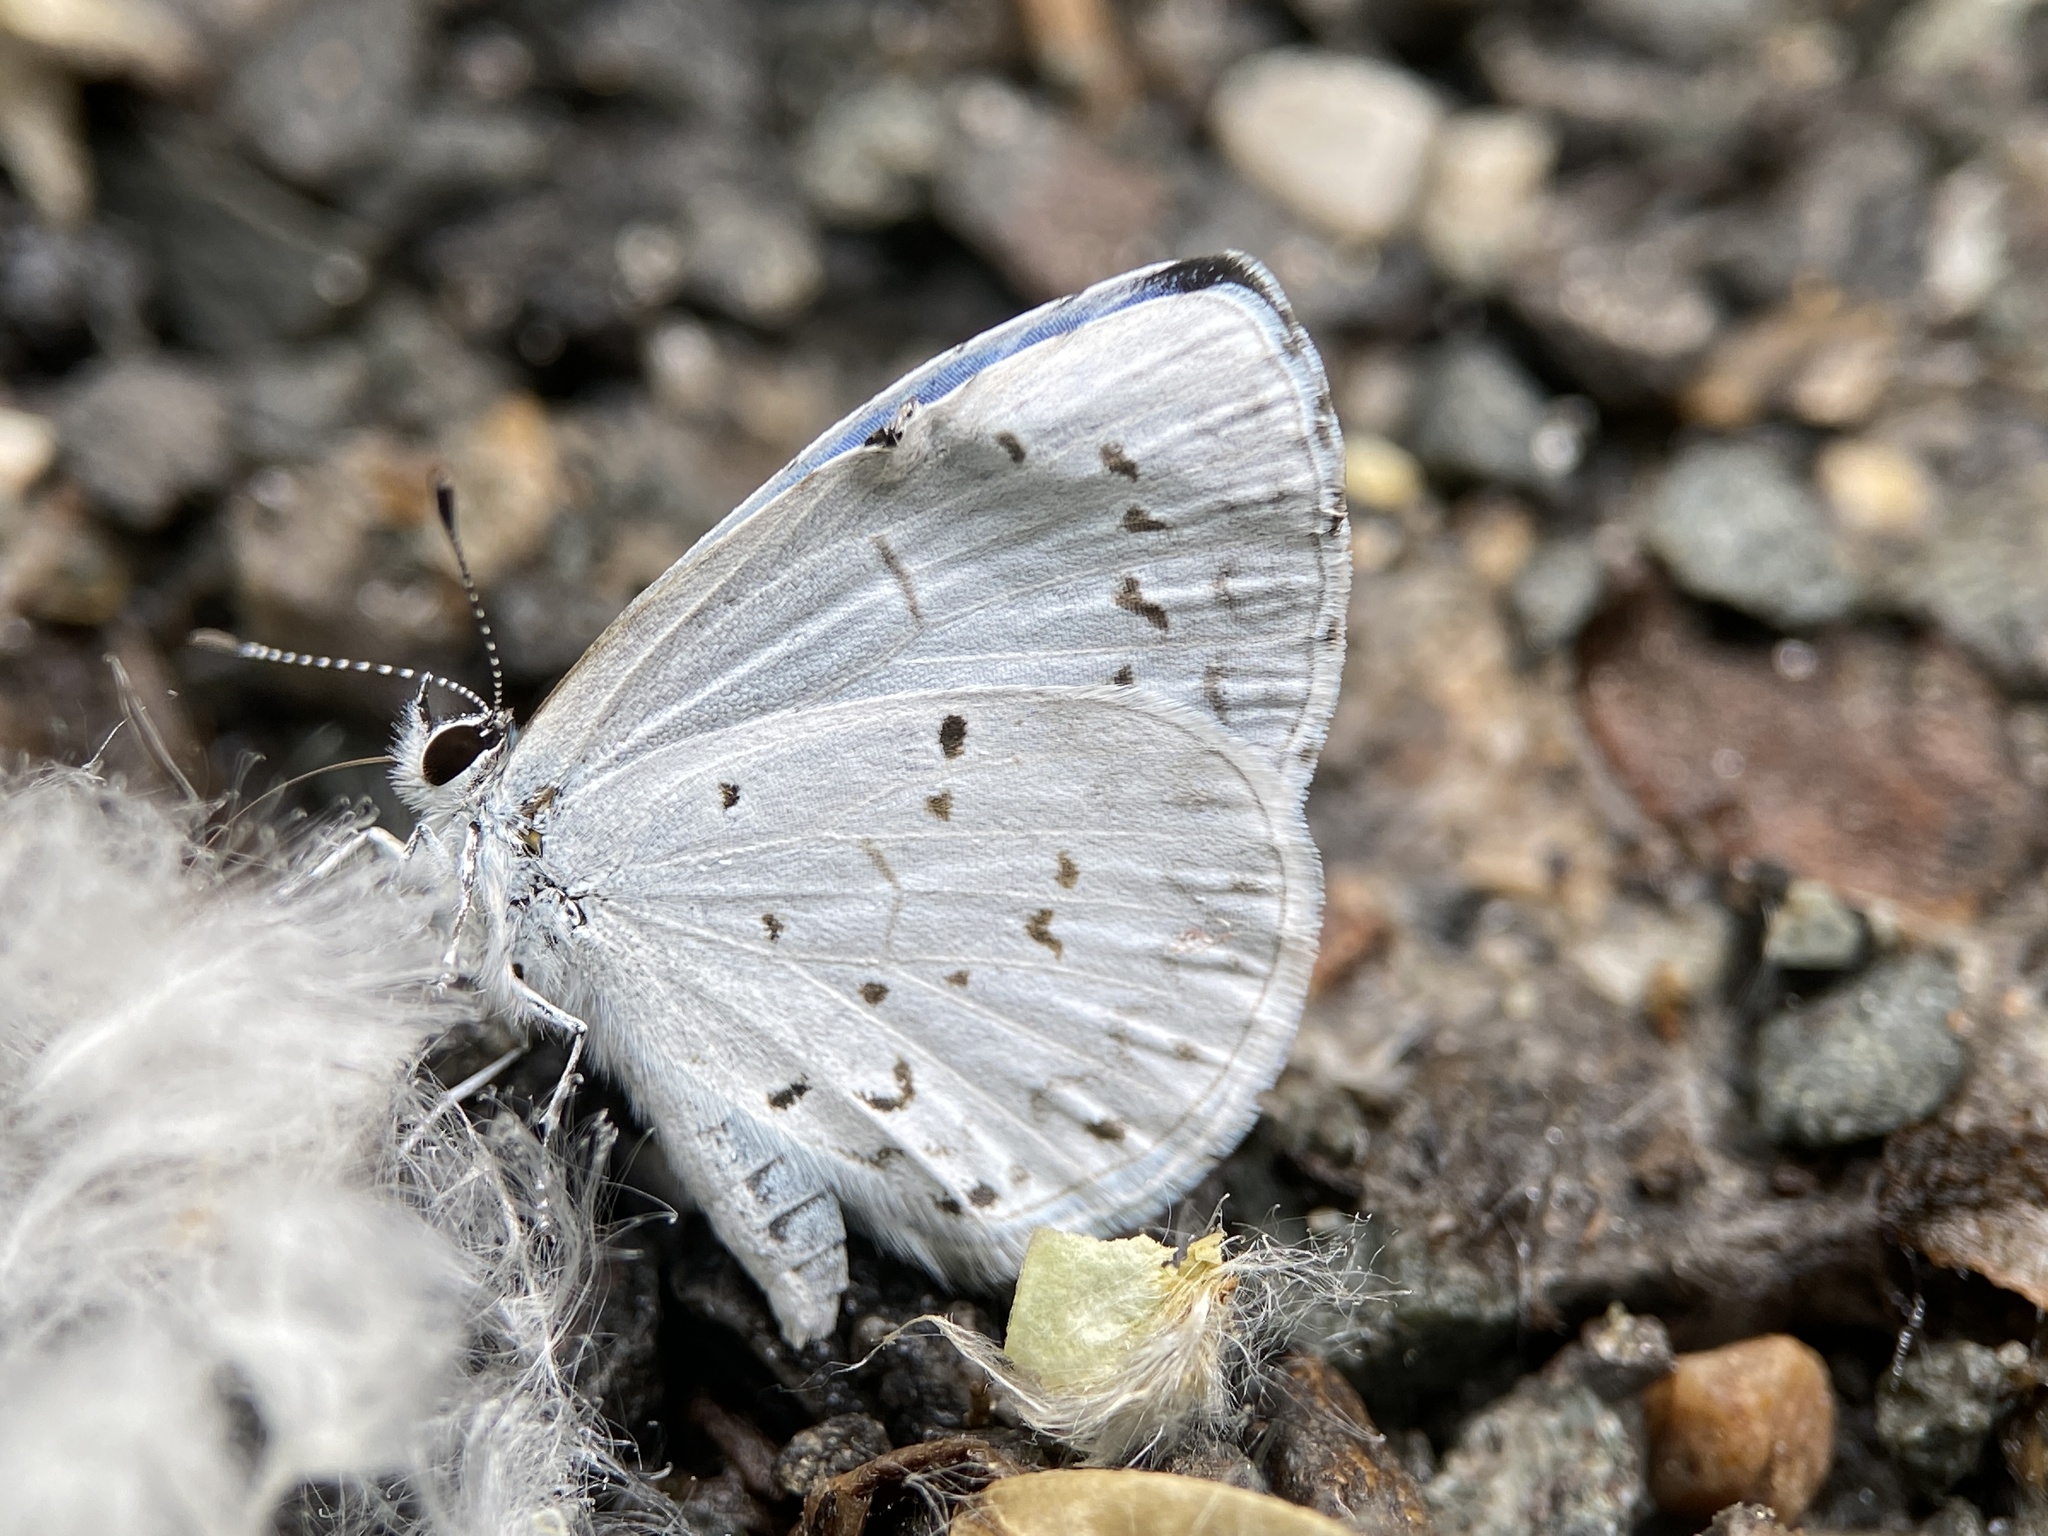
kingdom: Animalia
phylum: Arthropoda
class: Insecta
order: Lepidoptera
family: Lycaenidae
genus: Cyaniris
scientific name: Cyaniris neglecta
